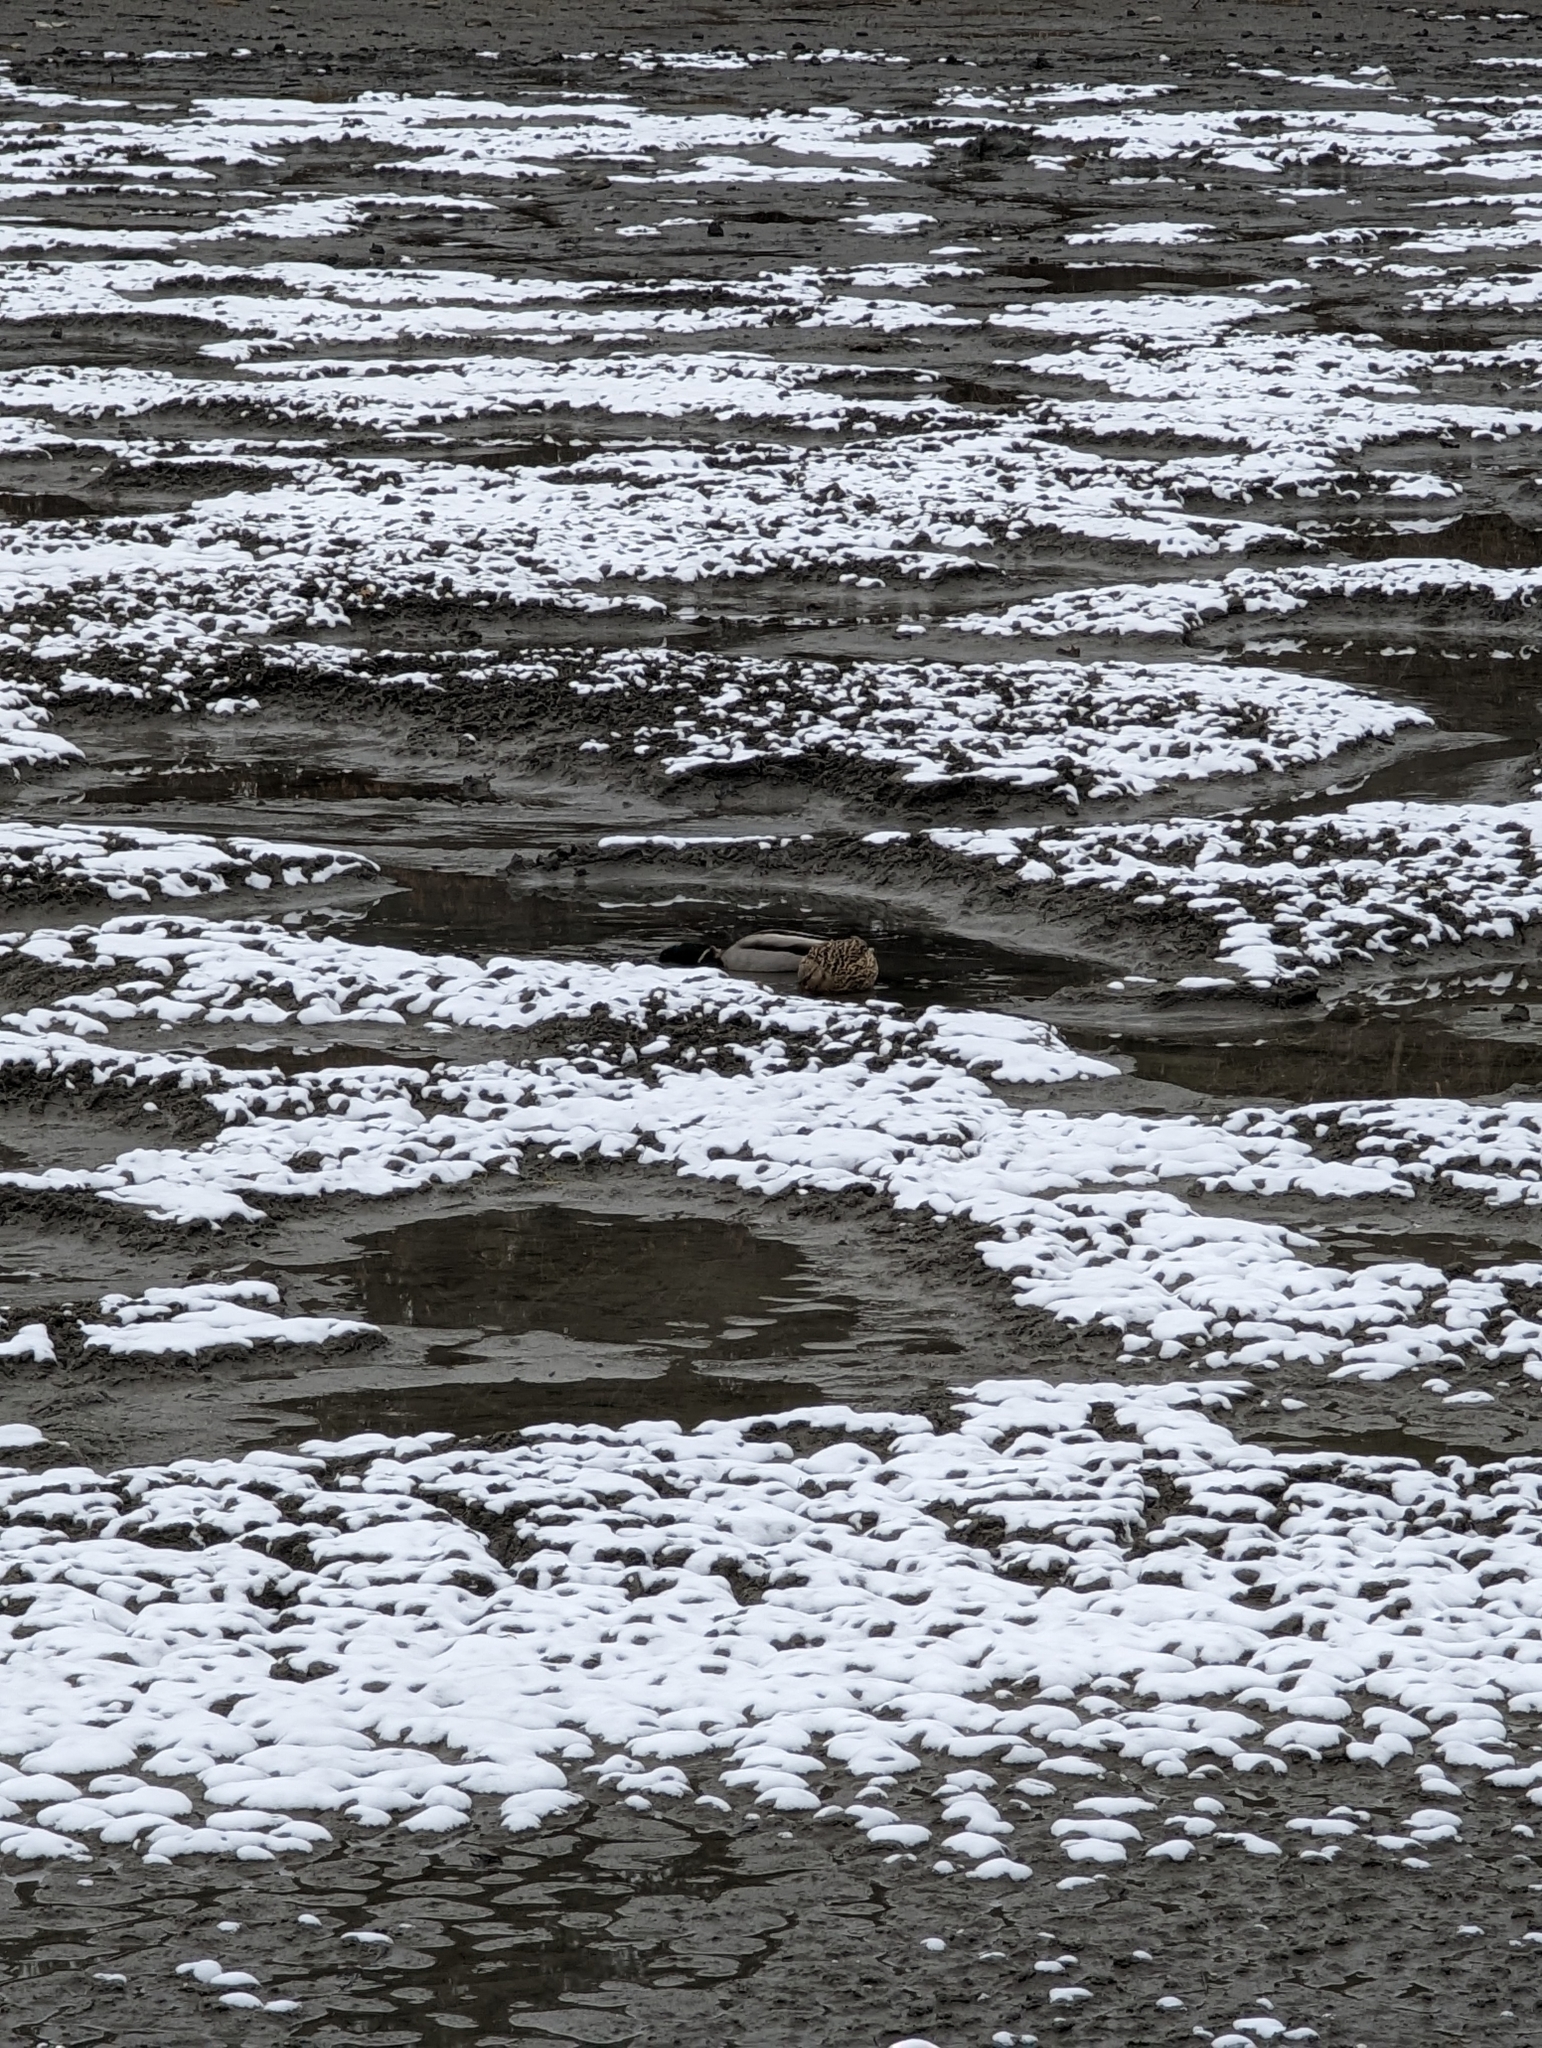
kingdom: Animalia
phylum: Chordata
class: Aves
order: Anseriformes
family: Anatidae
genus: Anas
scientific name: Anas platyrhynchos
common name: Mallard
